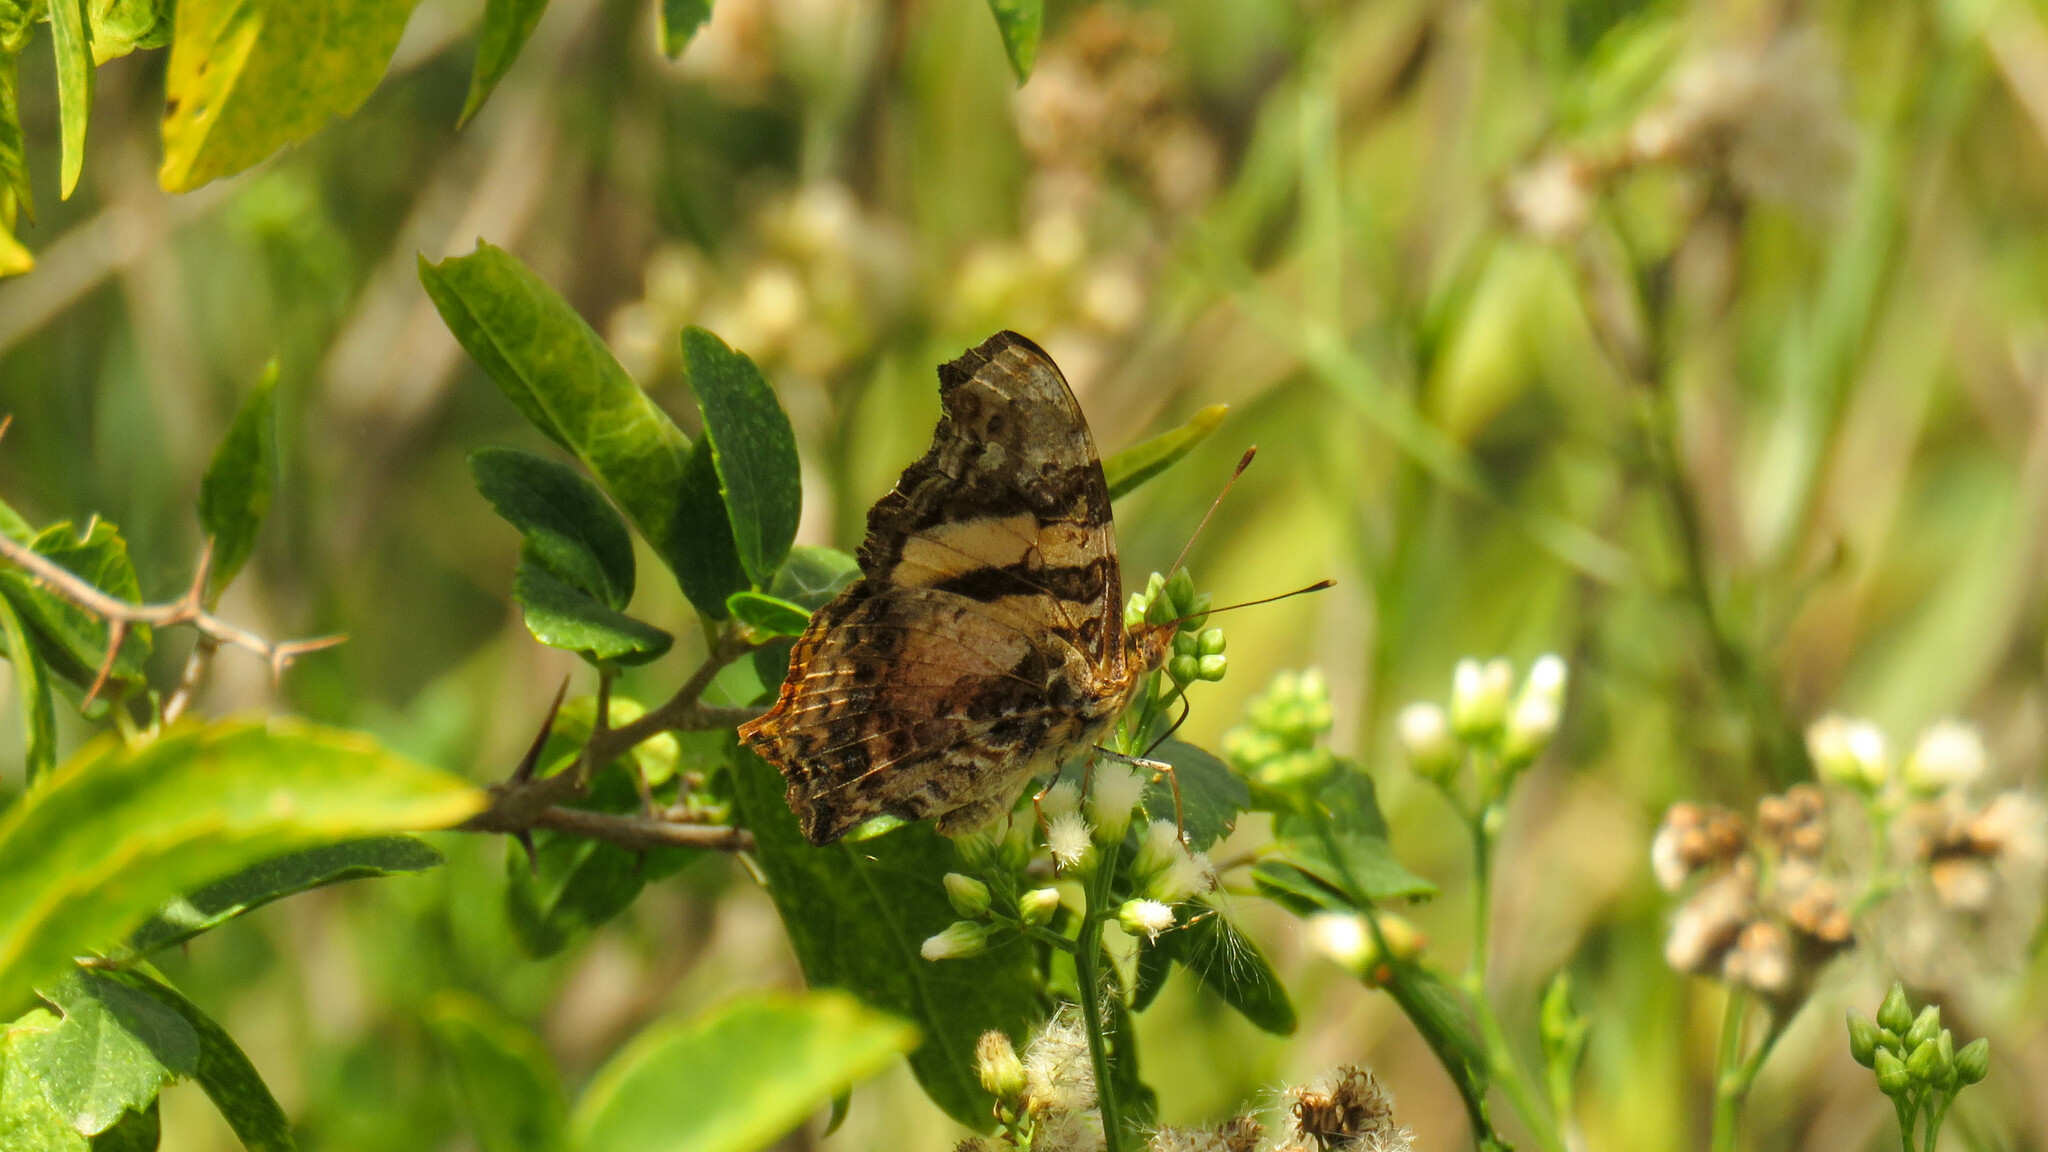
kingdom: Animalia
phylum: Arthropoda
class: Insecta
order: Lepidoptera
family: Nymphalidae
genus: Hypanartia
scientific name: Hypanartia bella
